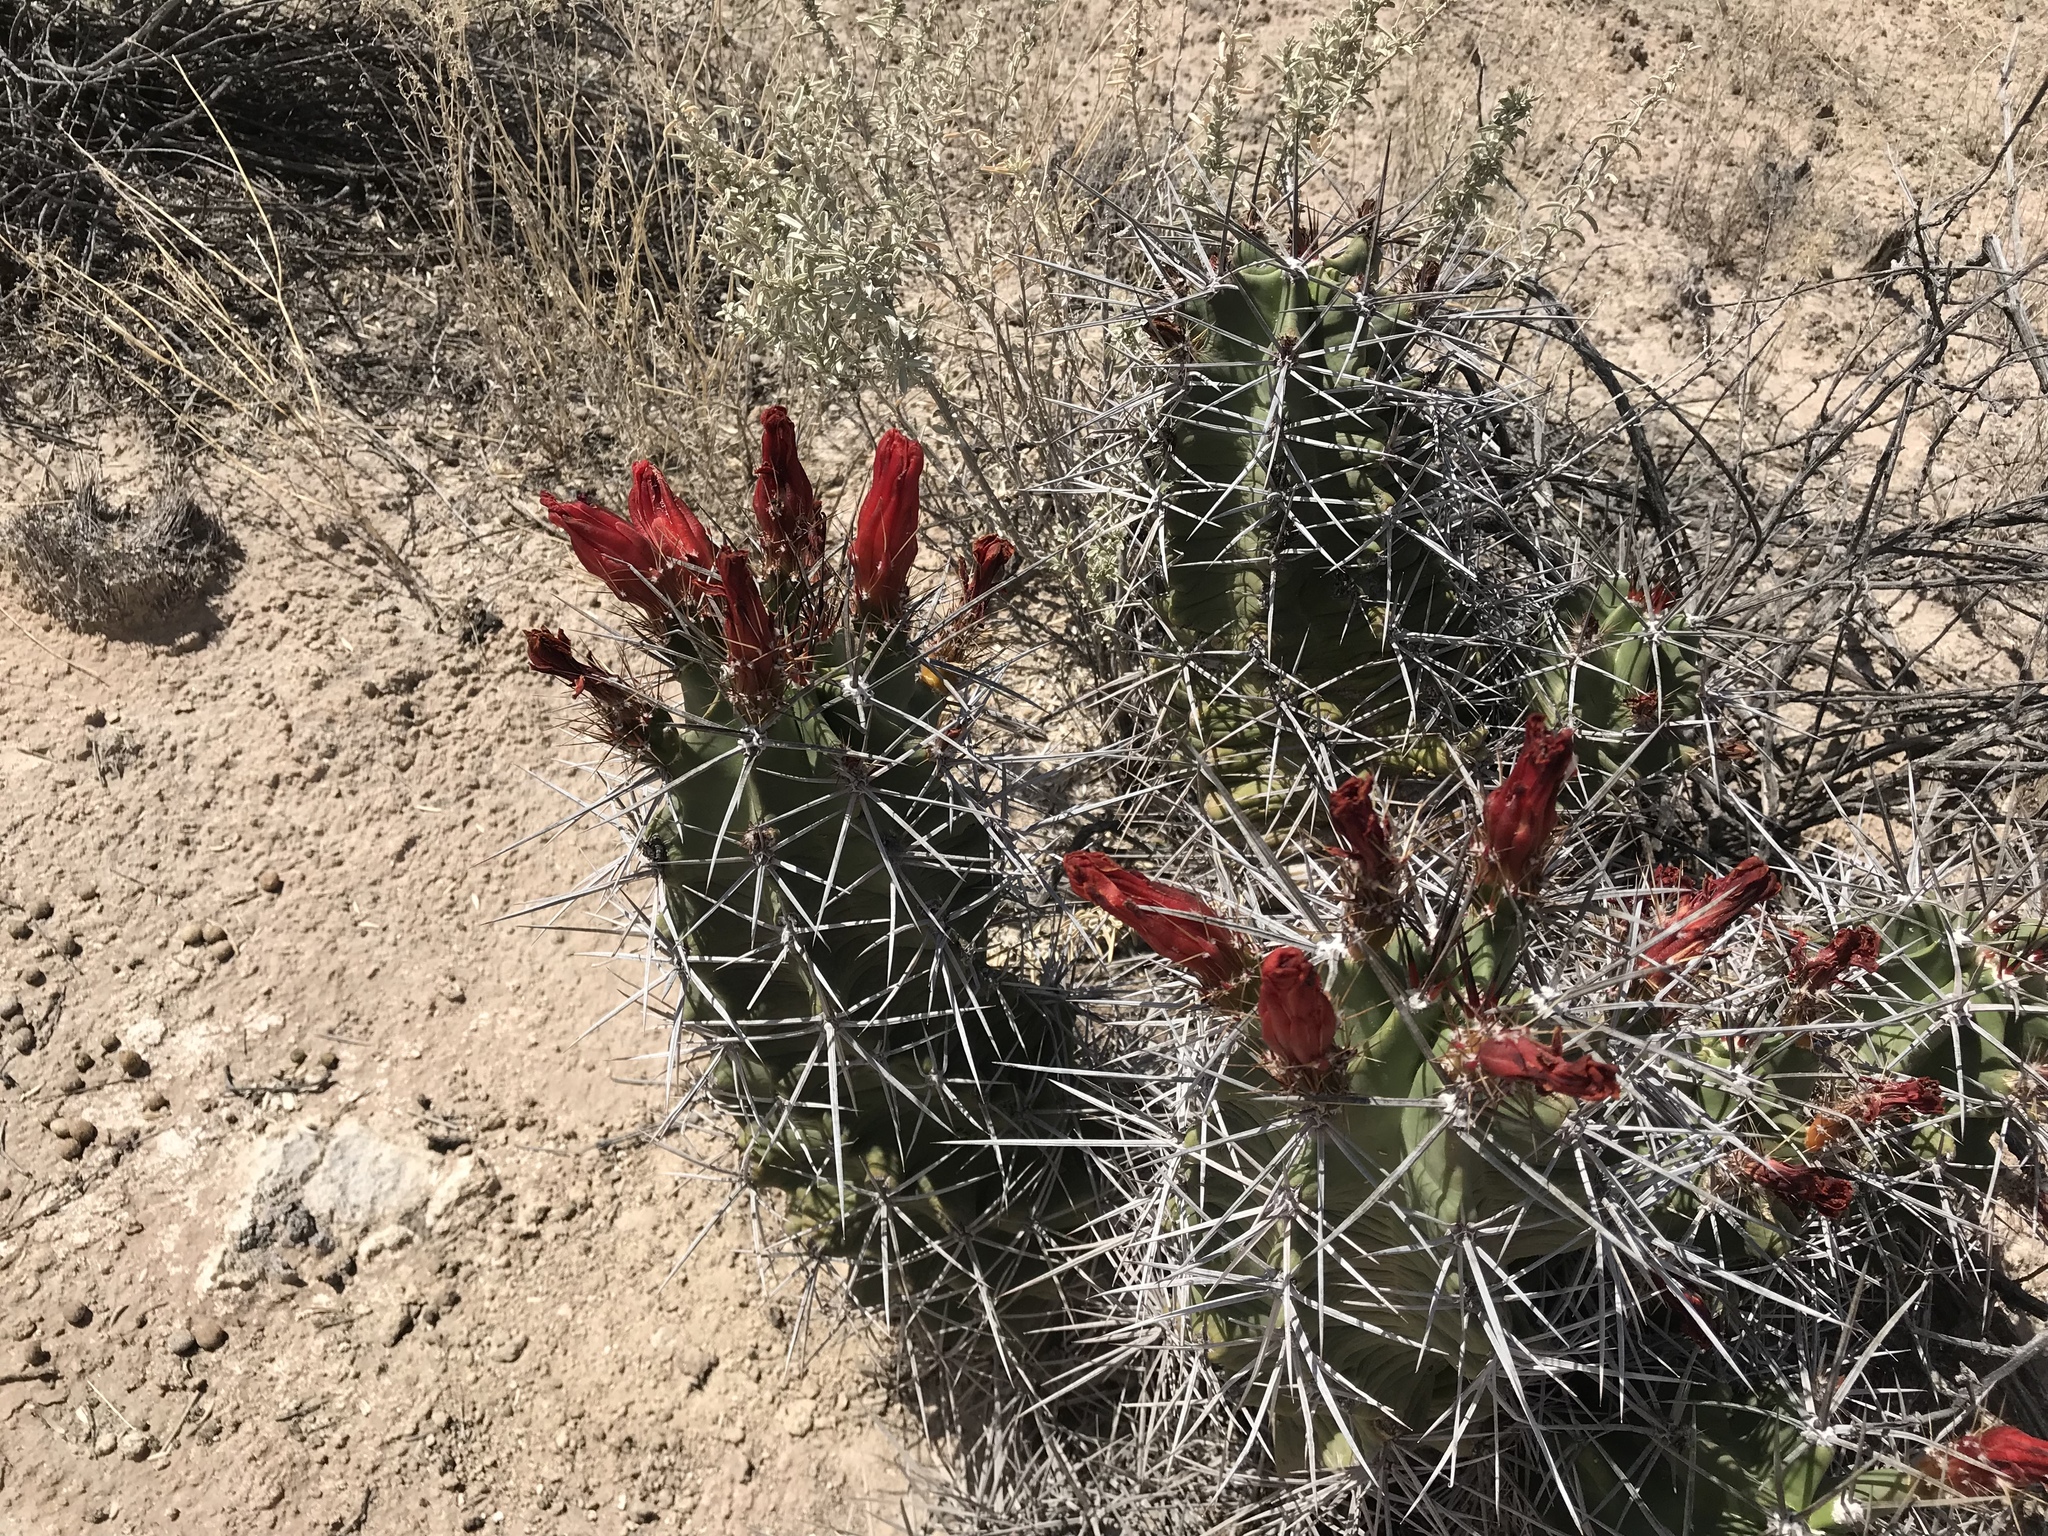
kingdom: Plantae
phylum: Tracheophyta
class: Magnoliopsida
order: Caryophyllales
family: Cactaceae
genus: Echinocereus
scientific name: Echinocereus triglochidiatus
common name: Claretcup hedgehog
